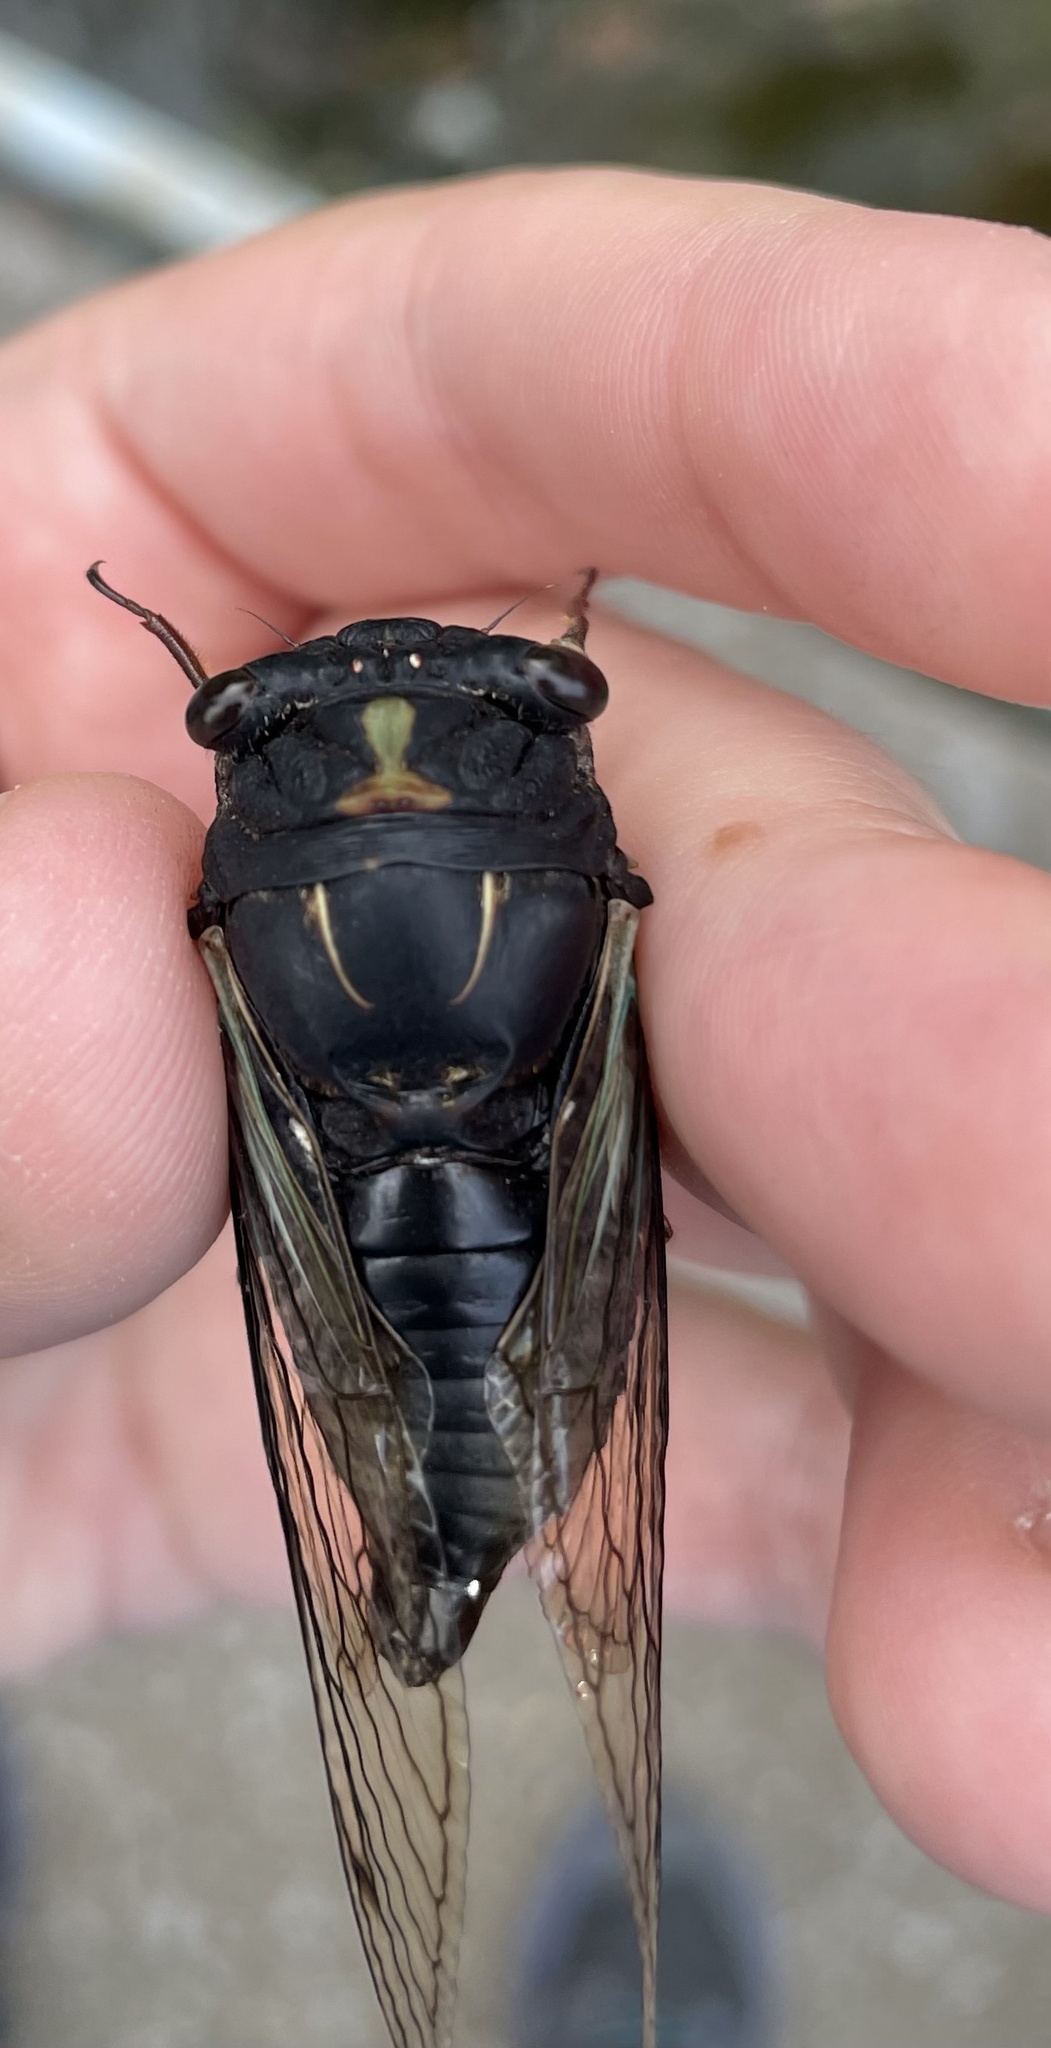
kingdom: Animalia
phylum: Arthropoda
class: Insecta
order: Hemiptera
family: Cicadidae
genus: Neotibicen
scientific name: Neotibicen lyricen
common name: Lyric cicada
